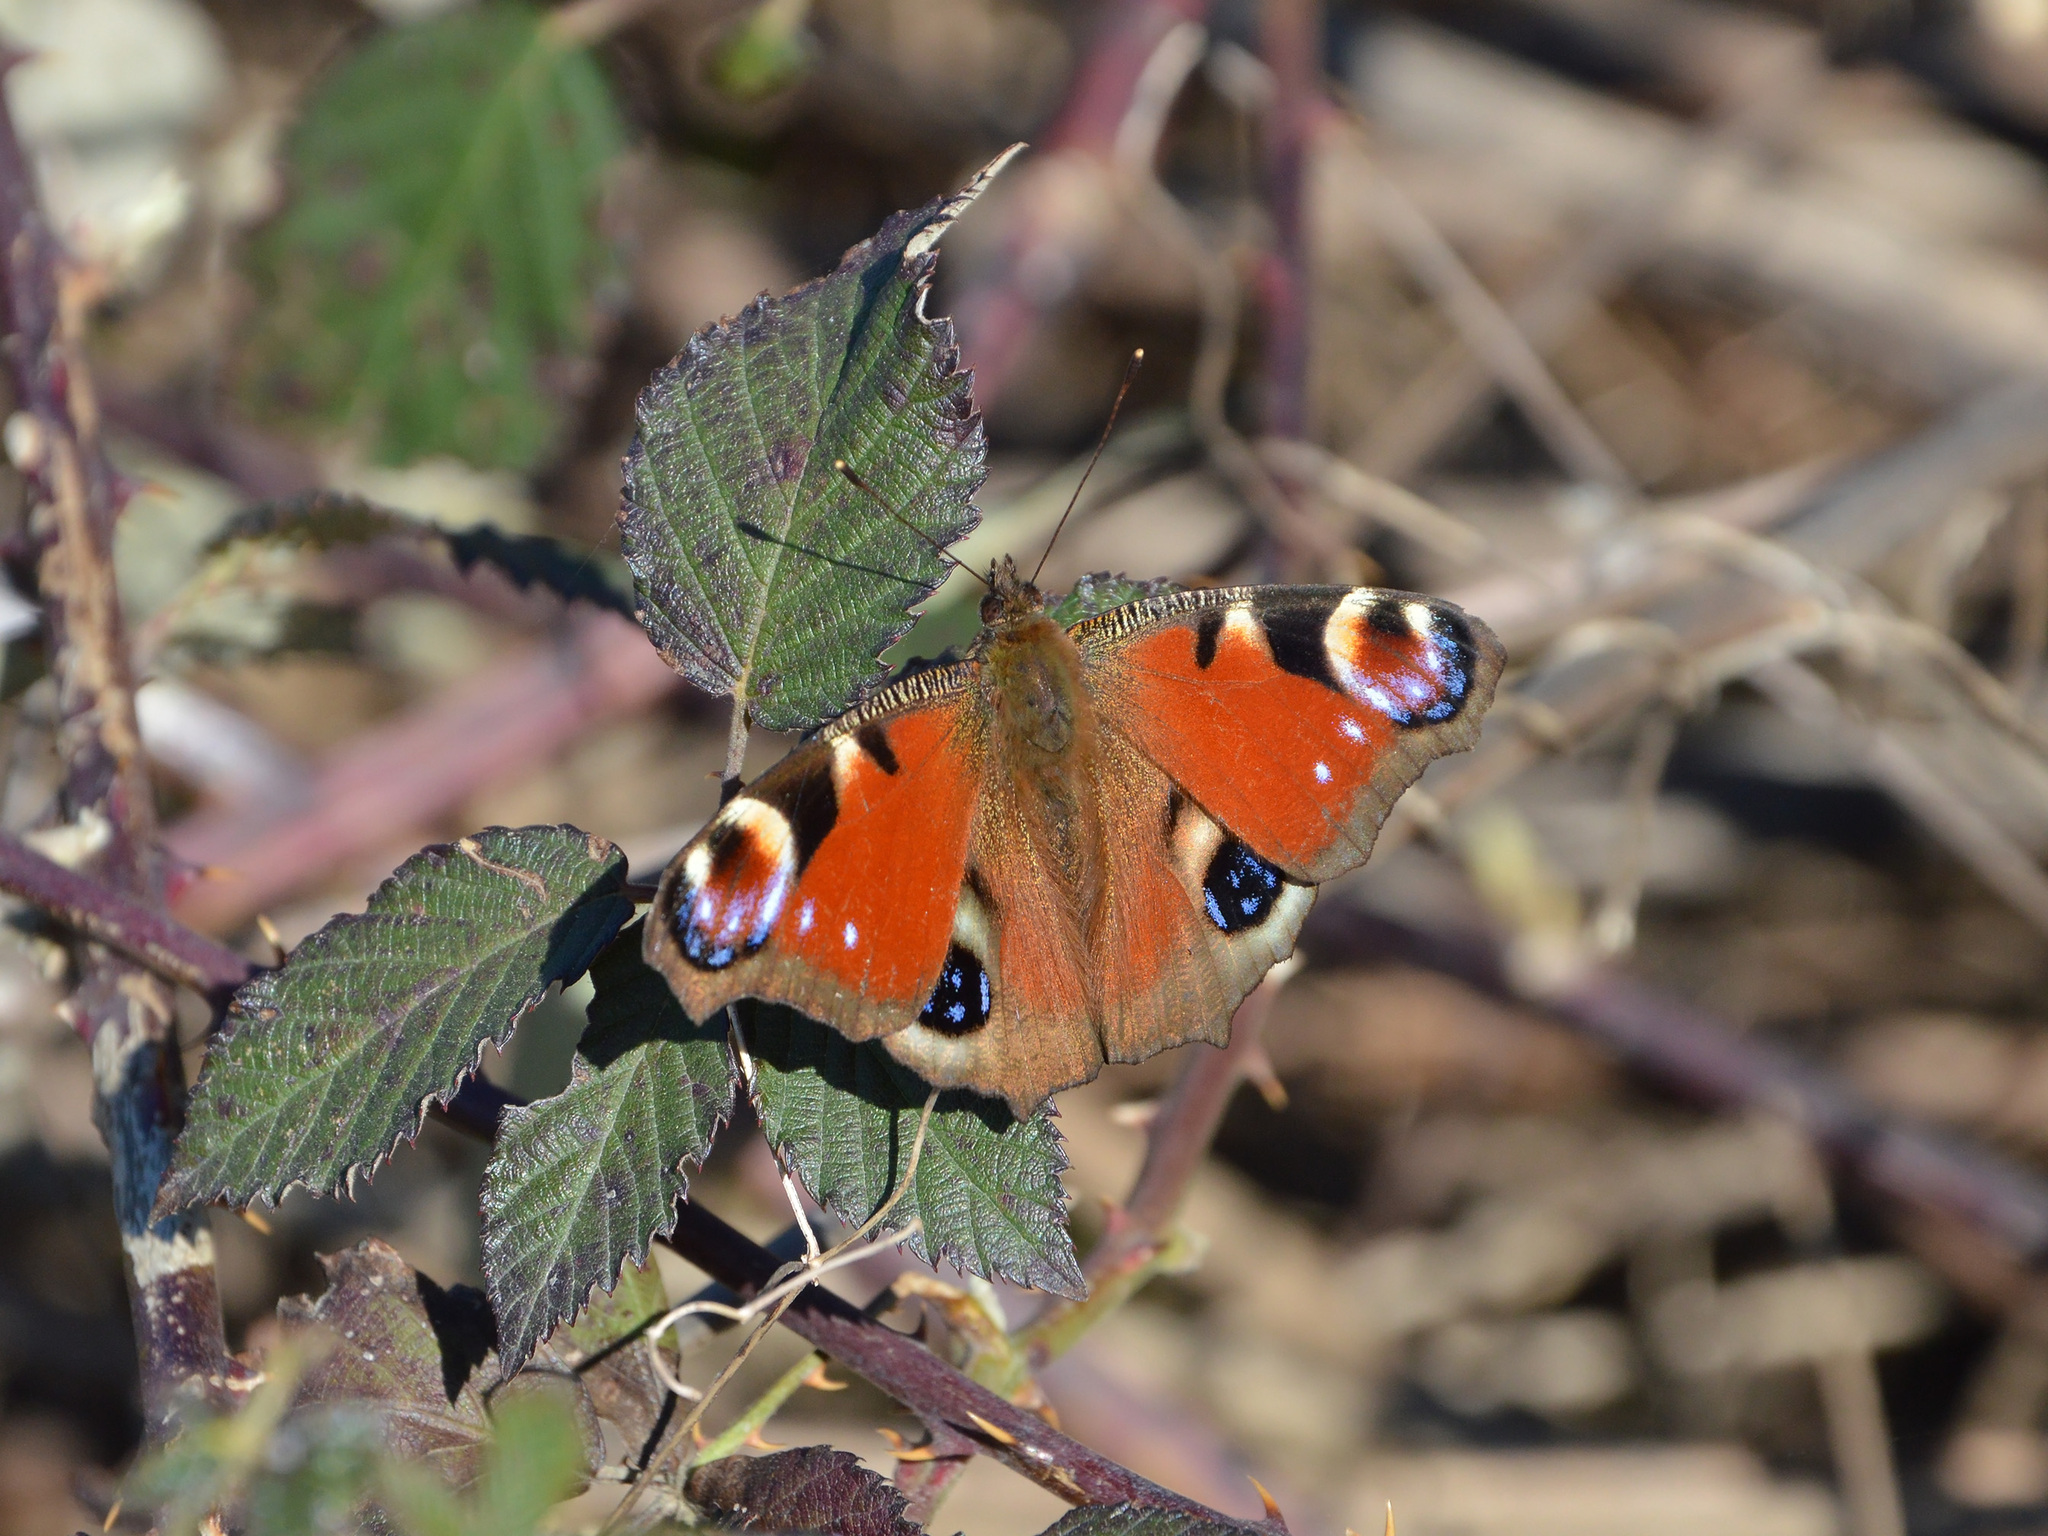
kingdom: Animalia
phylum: Arthropoda
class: Insecta
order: Lepidoptera
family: Nymphalidae
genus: Aglais
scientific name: Aglais io
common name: Peacock
